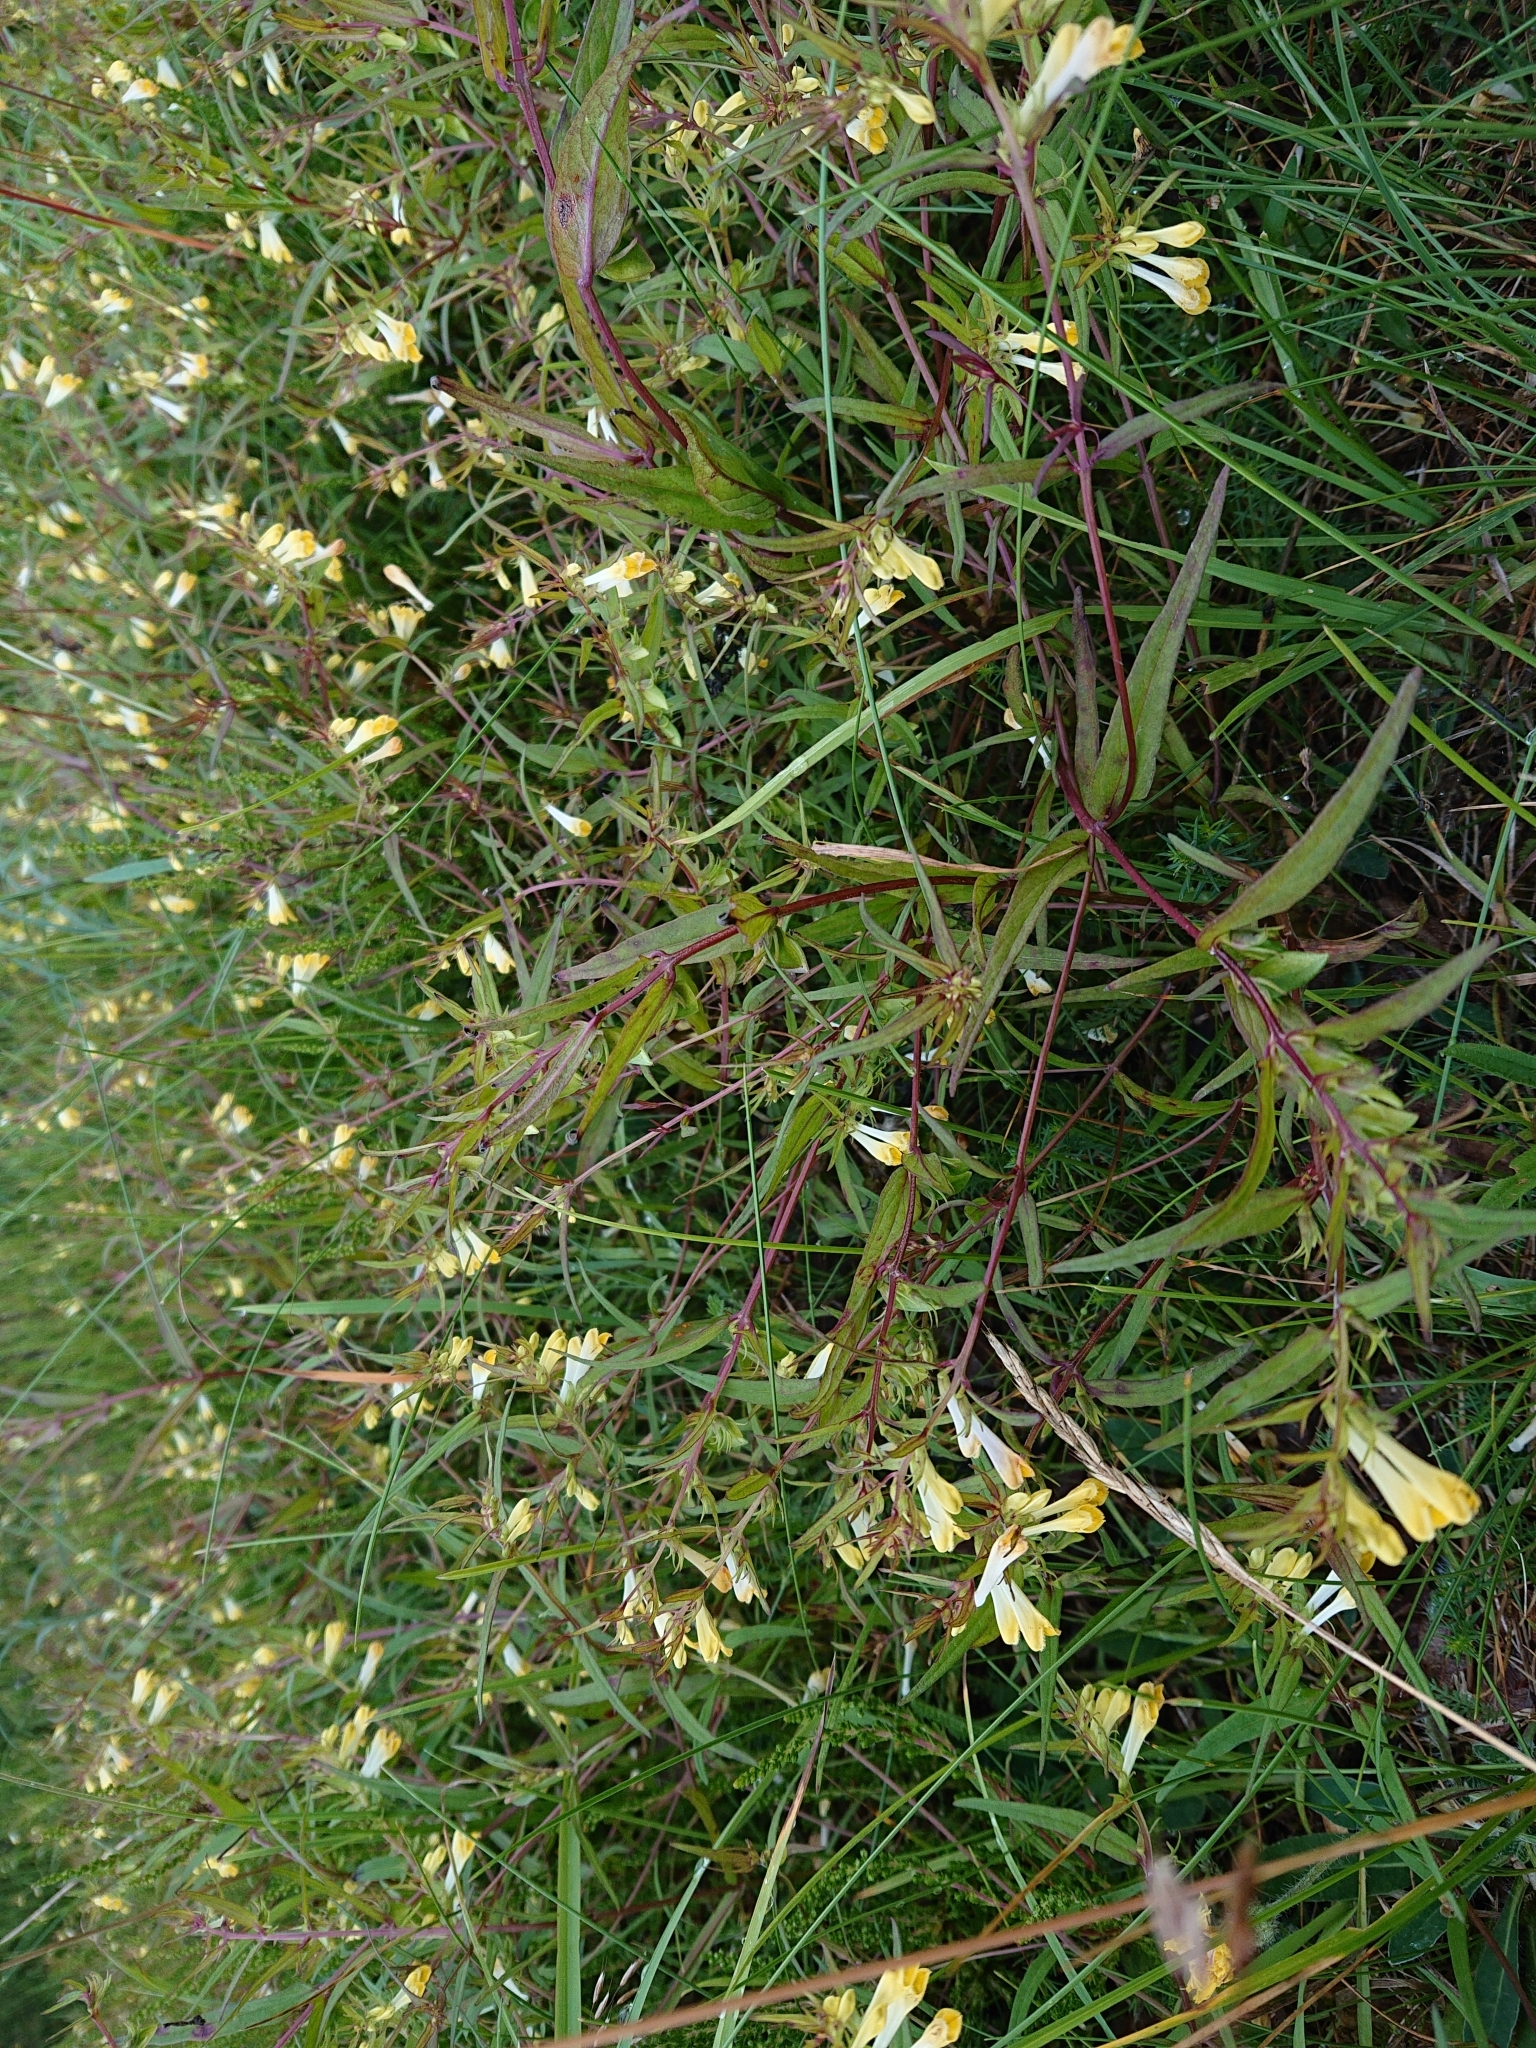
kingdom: Plantae
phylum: Tracheophyta
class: Magnoliopsida
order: Lamiales
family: Orobanchaceae
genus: Melampyrum
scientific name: Melampyrum pratense
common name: Common cow-wheat
